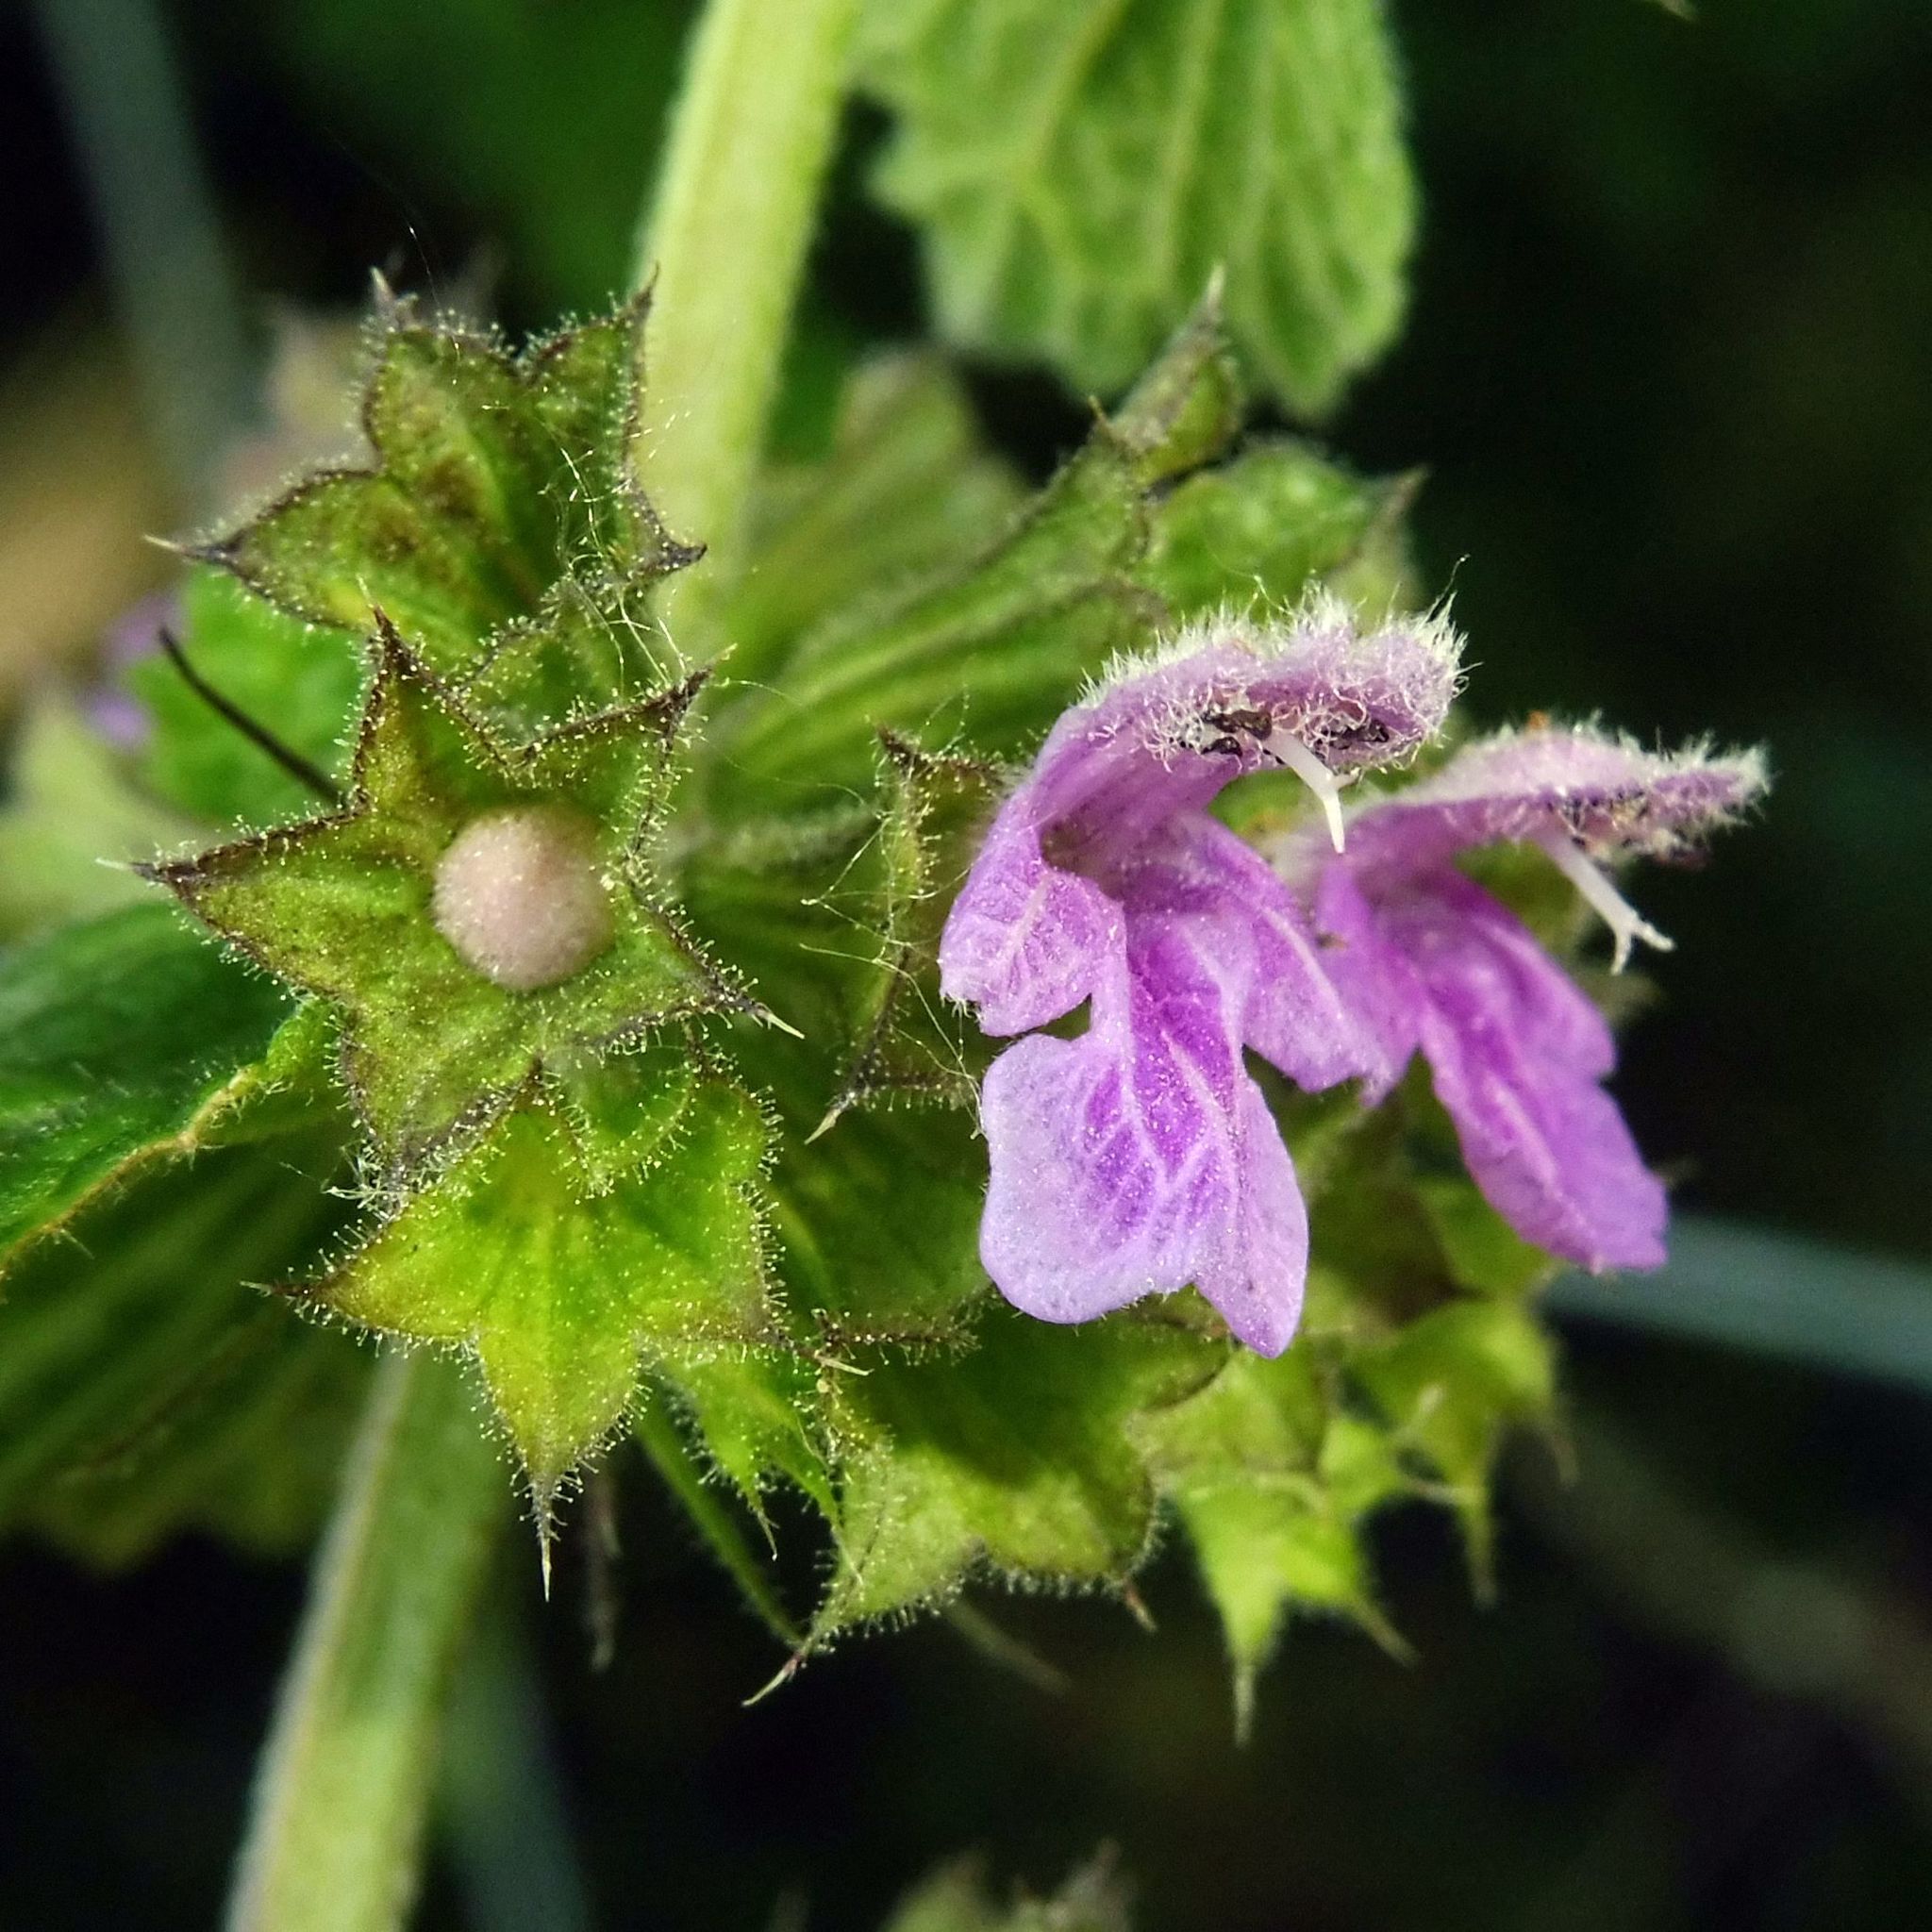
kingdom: Plantae
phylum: Tracheophyta
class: Magnoliopsida
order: Lamiales
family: Lamiaceae
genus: Ballota
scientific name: Ballota nigra
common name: Black horehound
